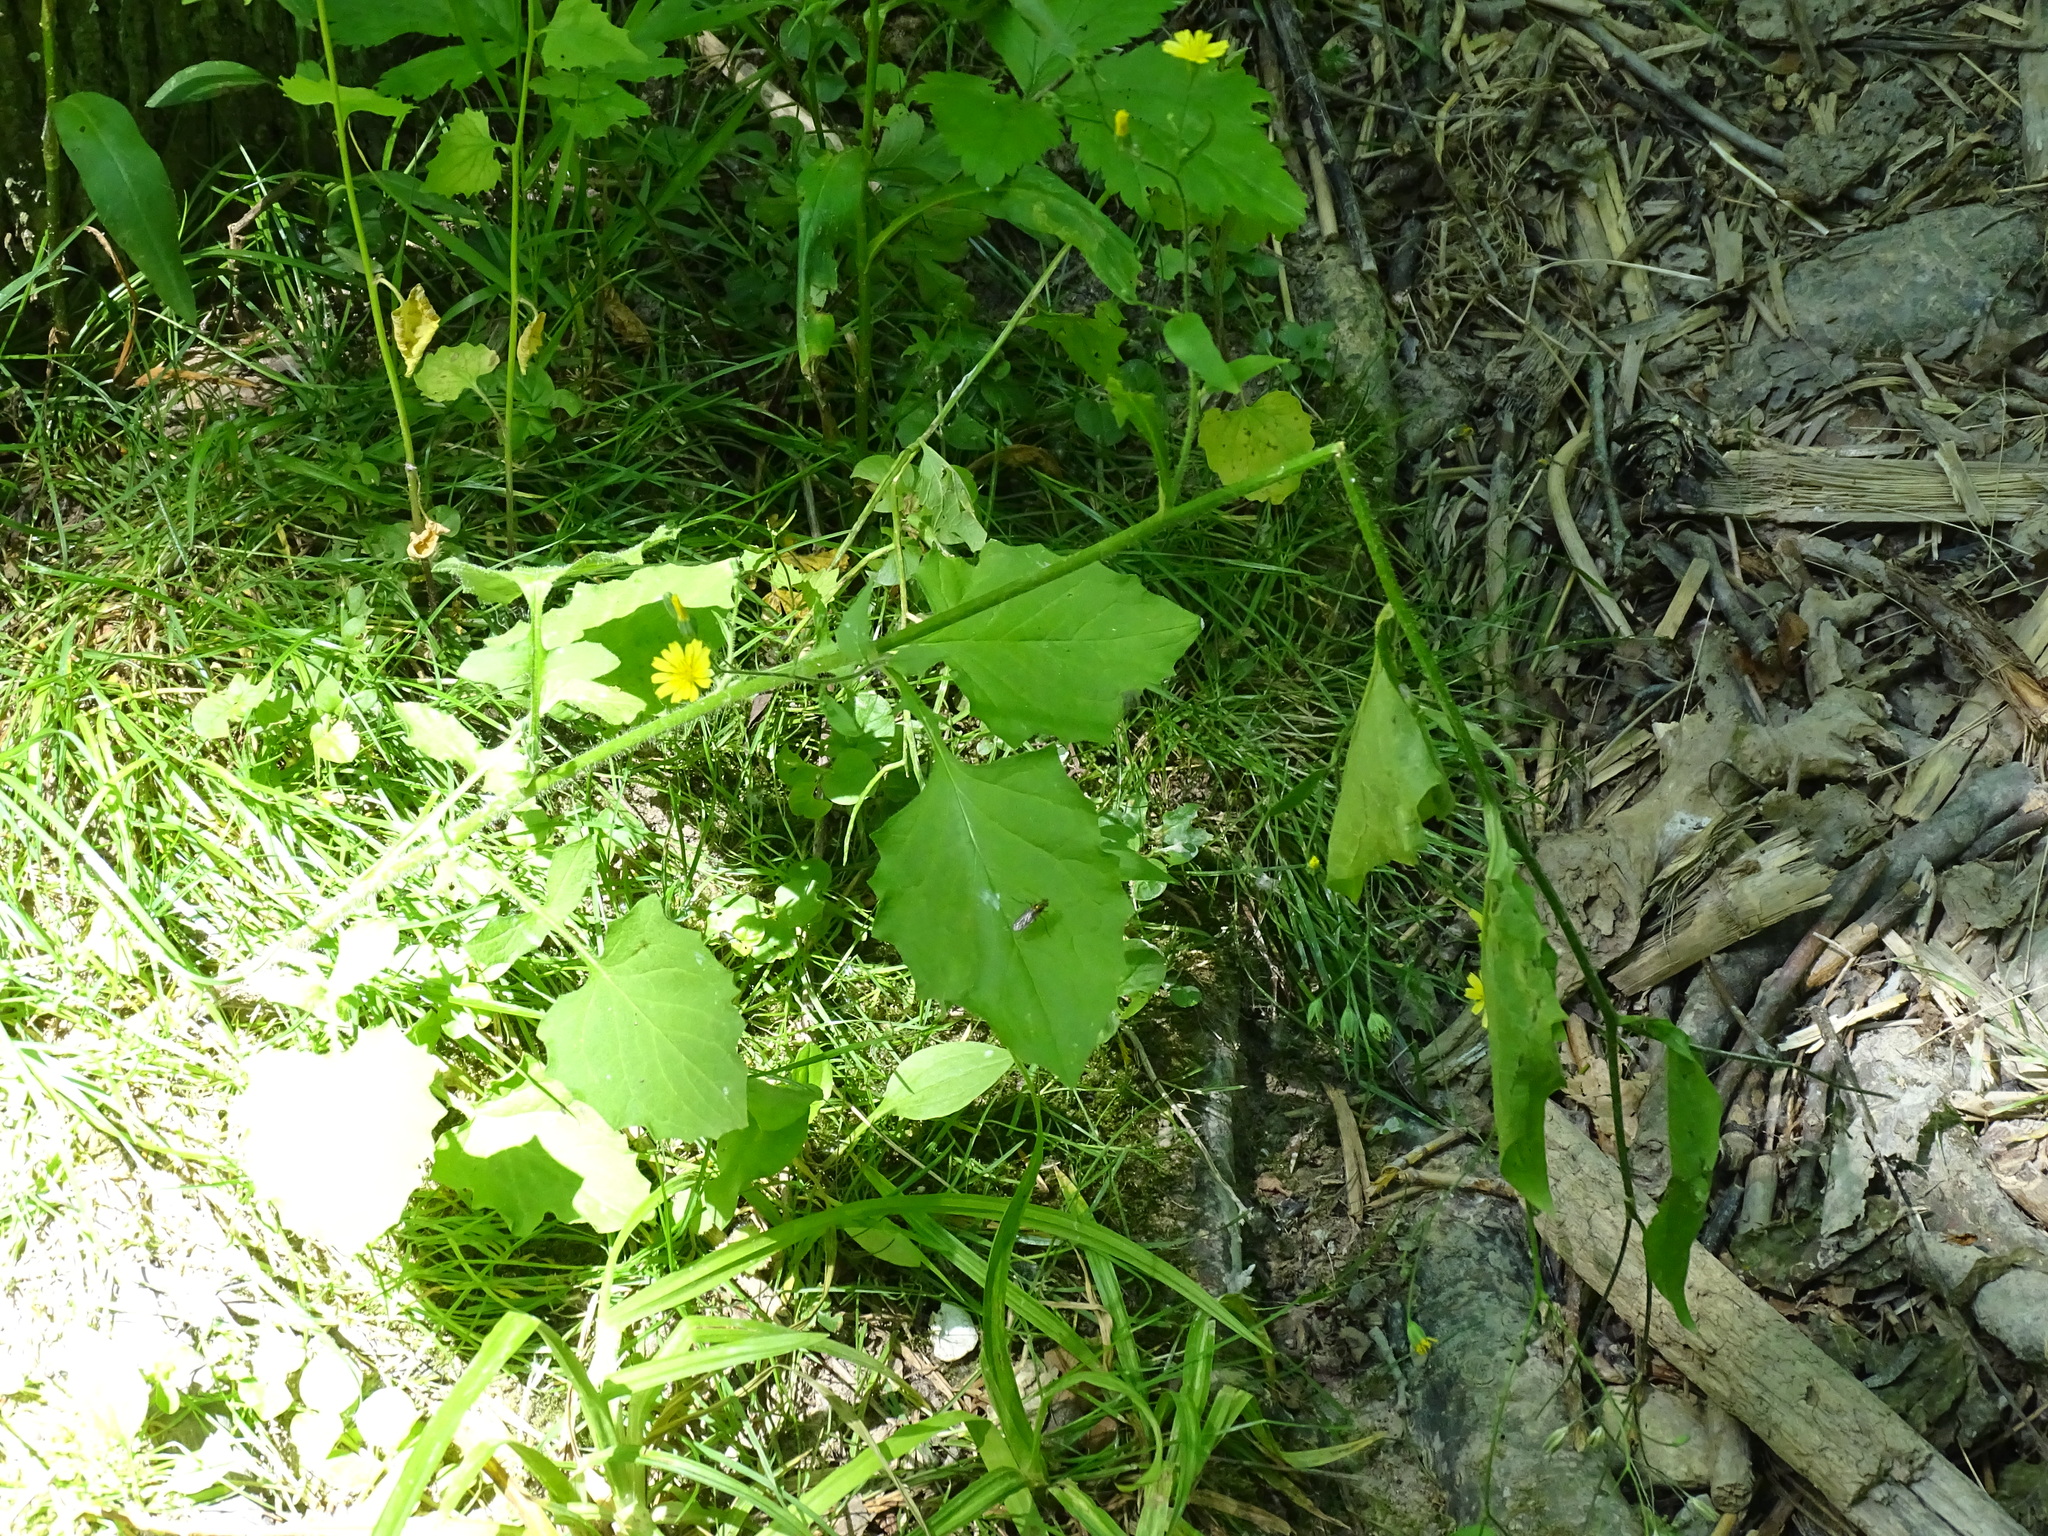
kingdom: Plantae
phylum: Tracheophyta
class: Magnoliopsida
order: Asterales
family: Asteraceae
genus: Lapsana
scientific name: Lapsana communis
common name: Nipplewort
